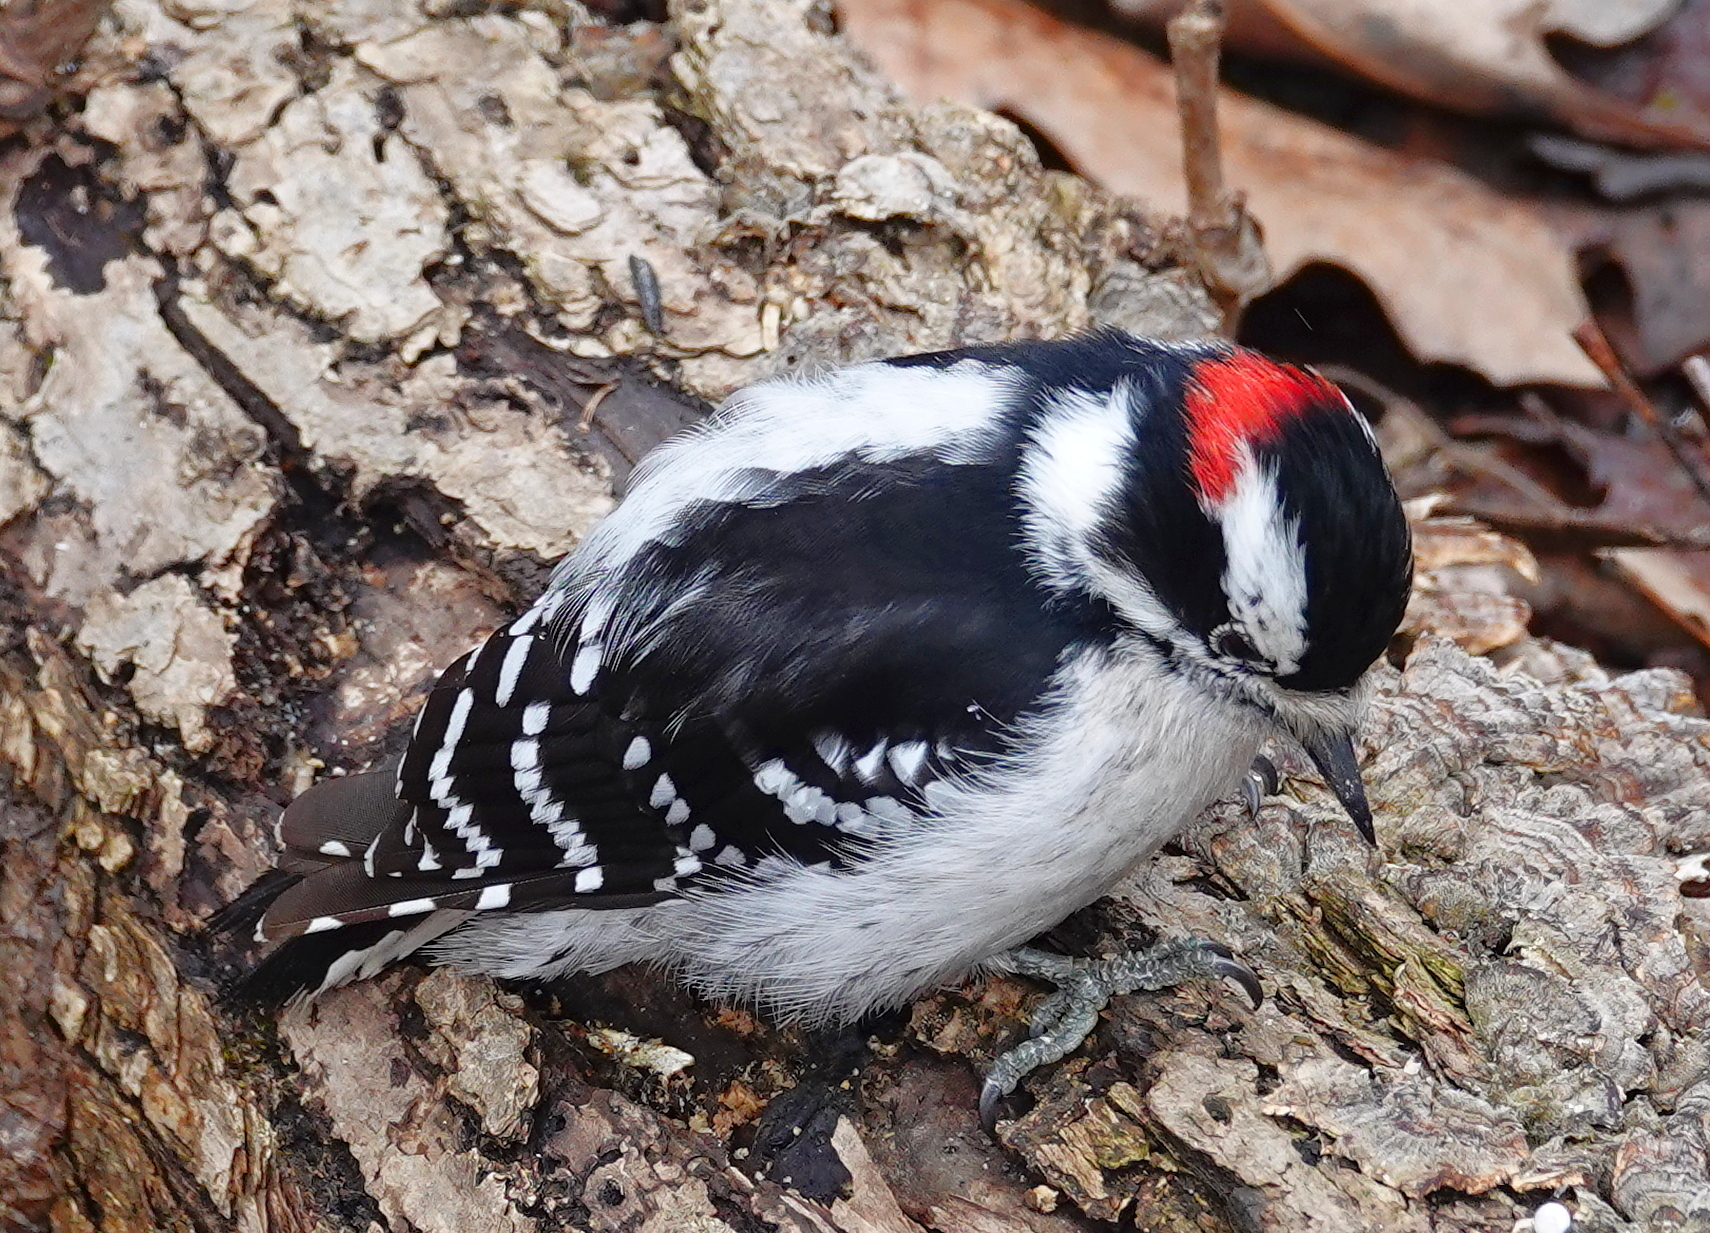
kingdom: Animalia
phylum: Chordata
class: Aves
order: Piciformes
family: Picidae
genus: Dryobates
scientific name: Dryobates pubescens
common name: Downy woodpecker
